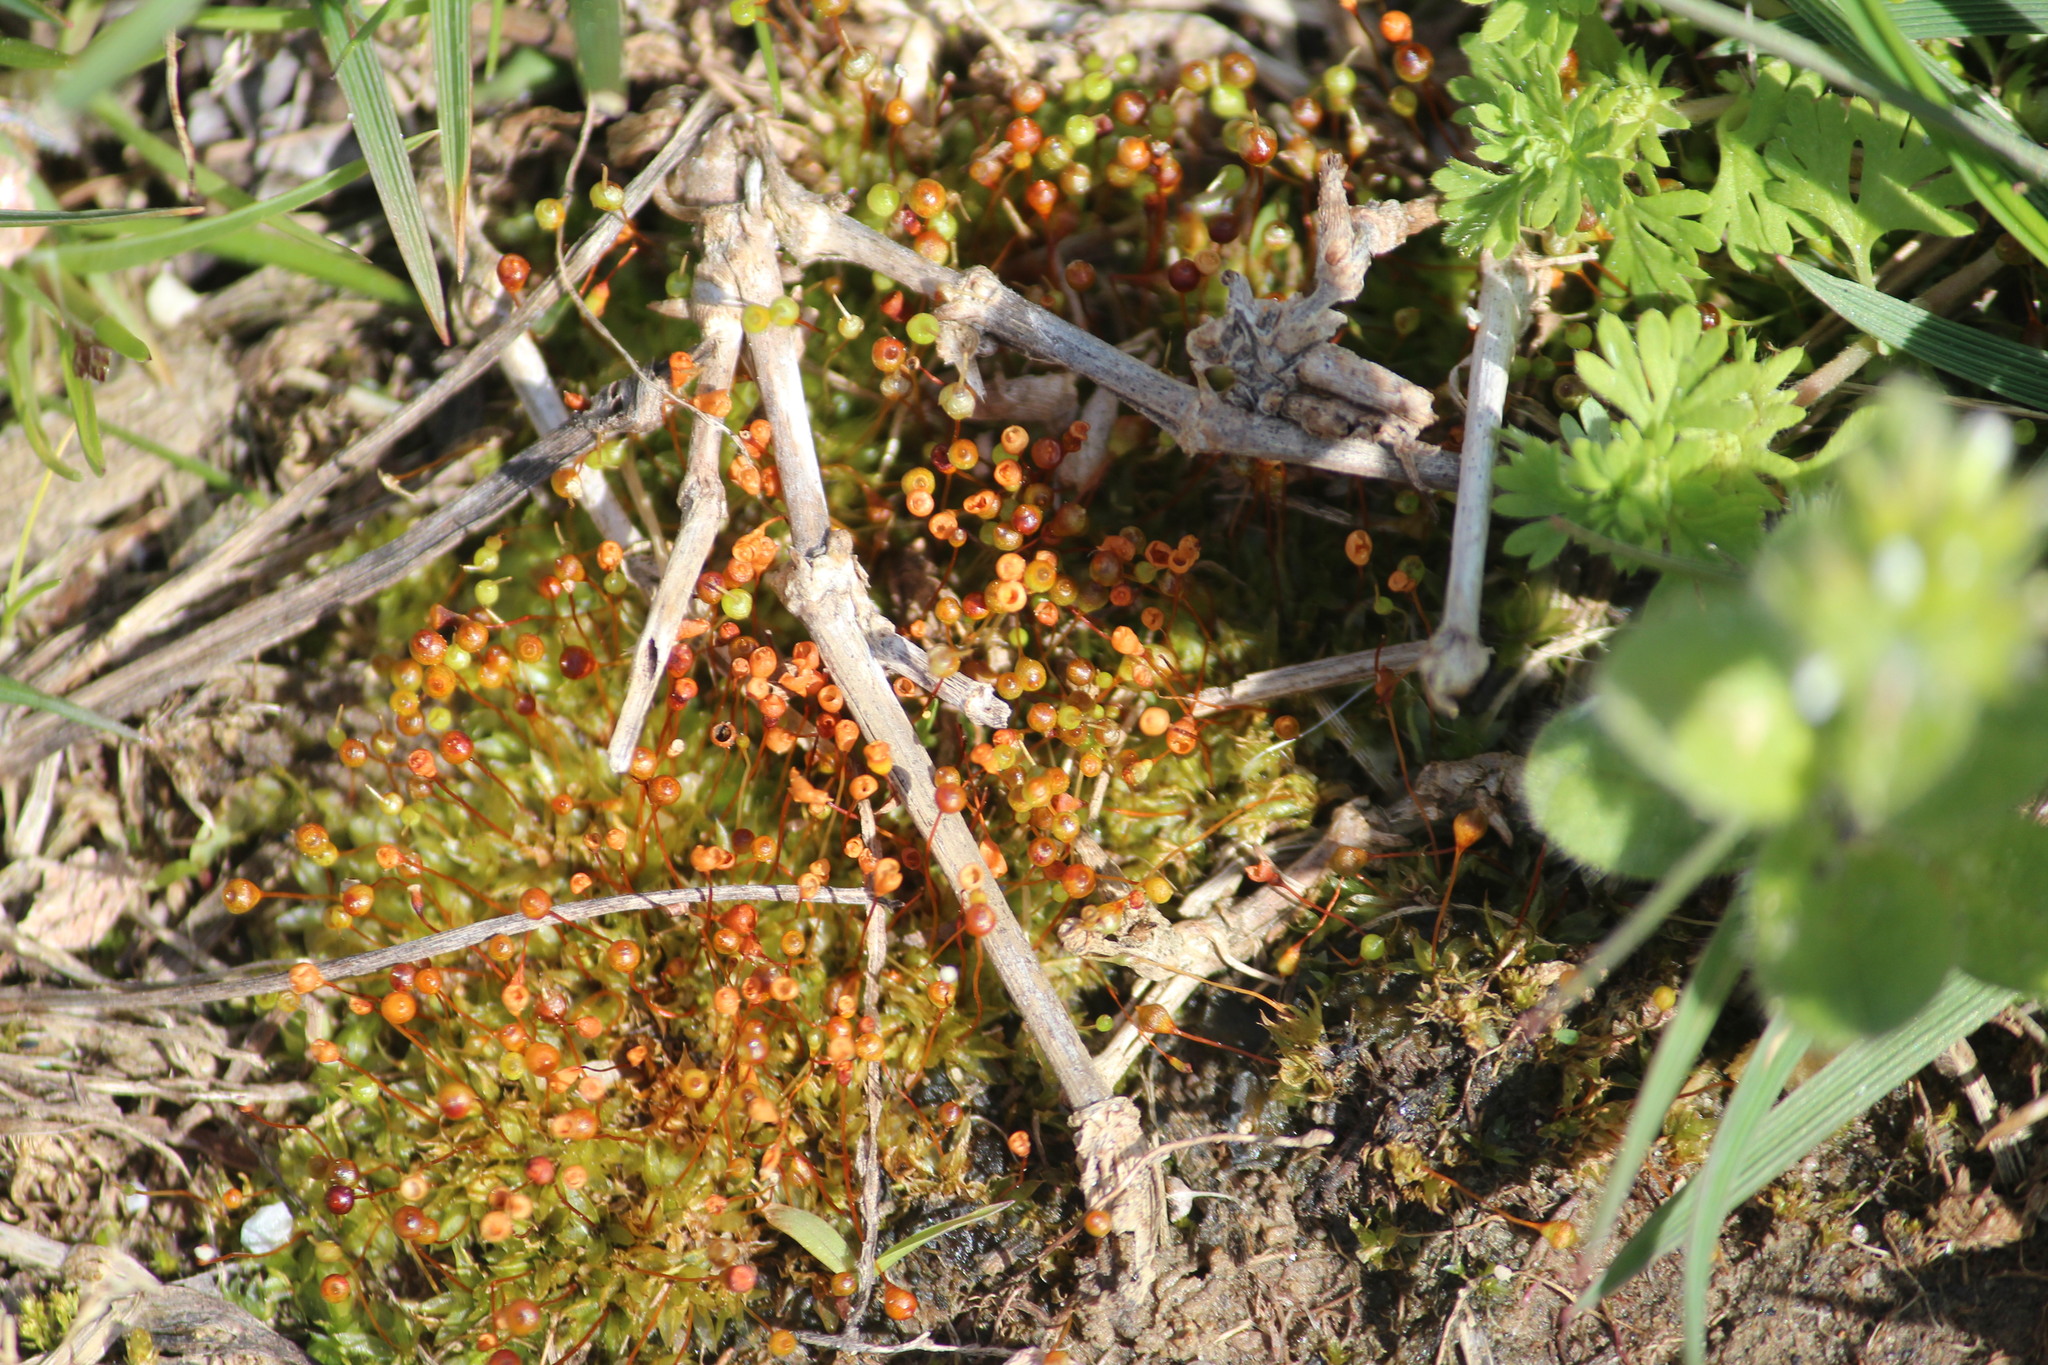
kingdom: Plantae
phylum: Bryophyta
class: Bryopsida
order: Funariales
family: Funariaceae
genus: Physcomitrium
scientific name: Physcomitrium pyriforme
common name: Common bladder-moss
